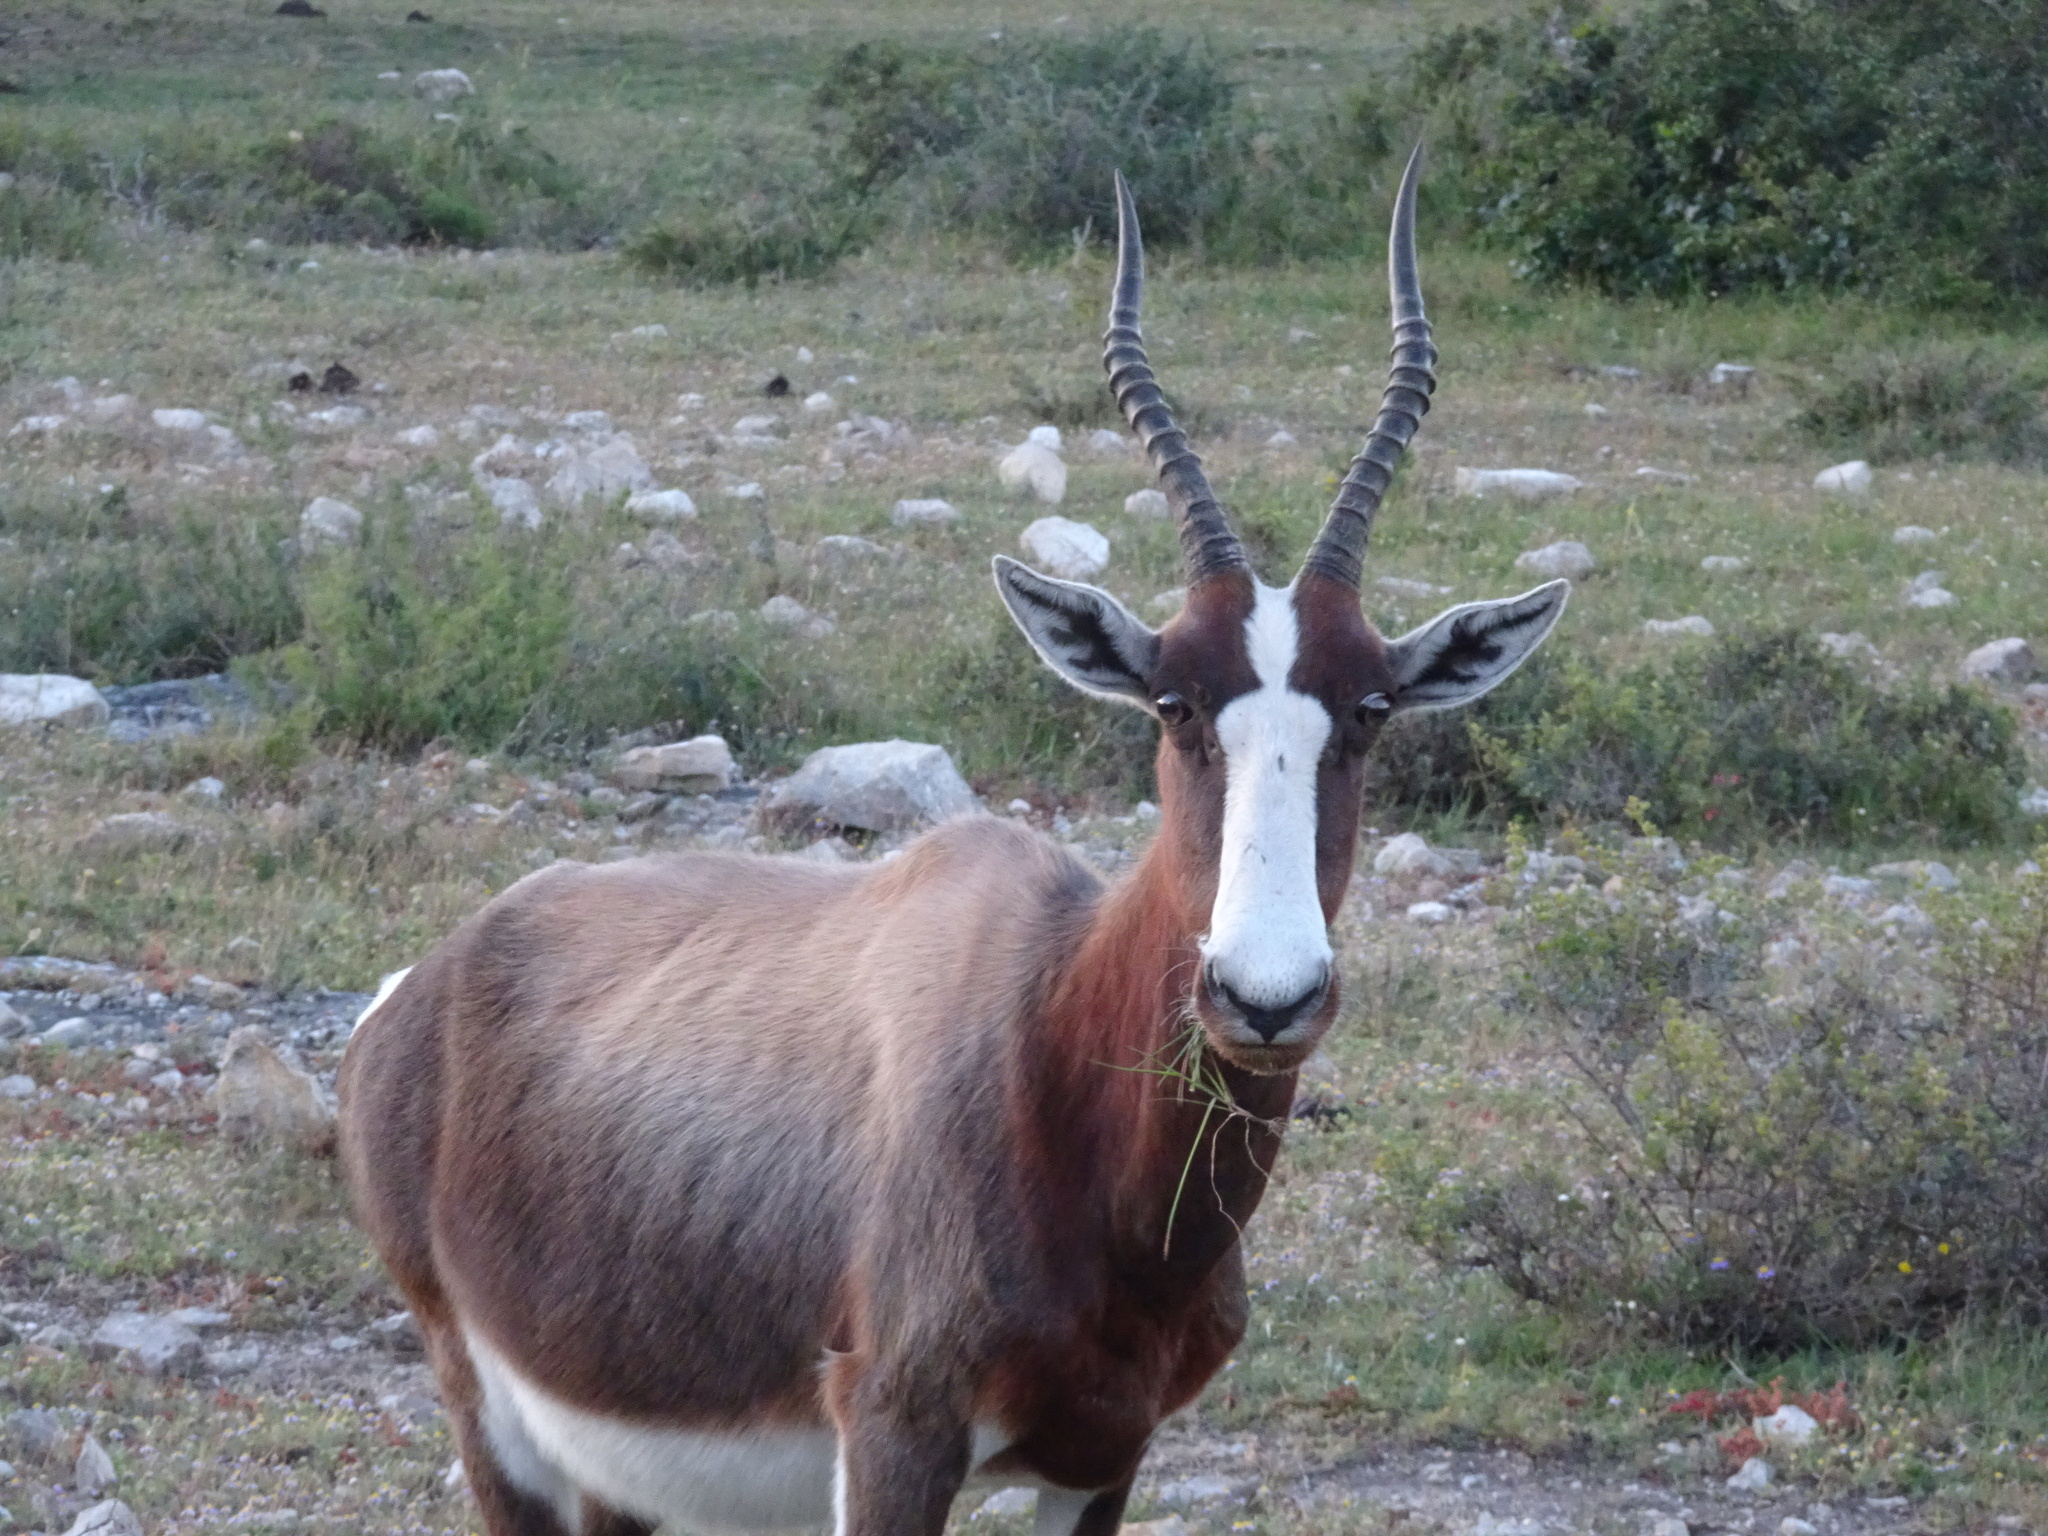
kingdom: Animalia
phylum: Chordata
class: Mammalia
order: Artiodactyla
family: Bovidae
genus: Damaliscus
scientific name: Damaliscus pygargus
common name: Bontebok
